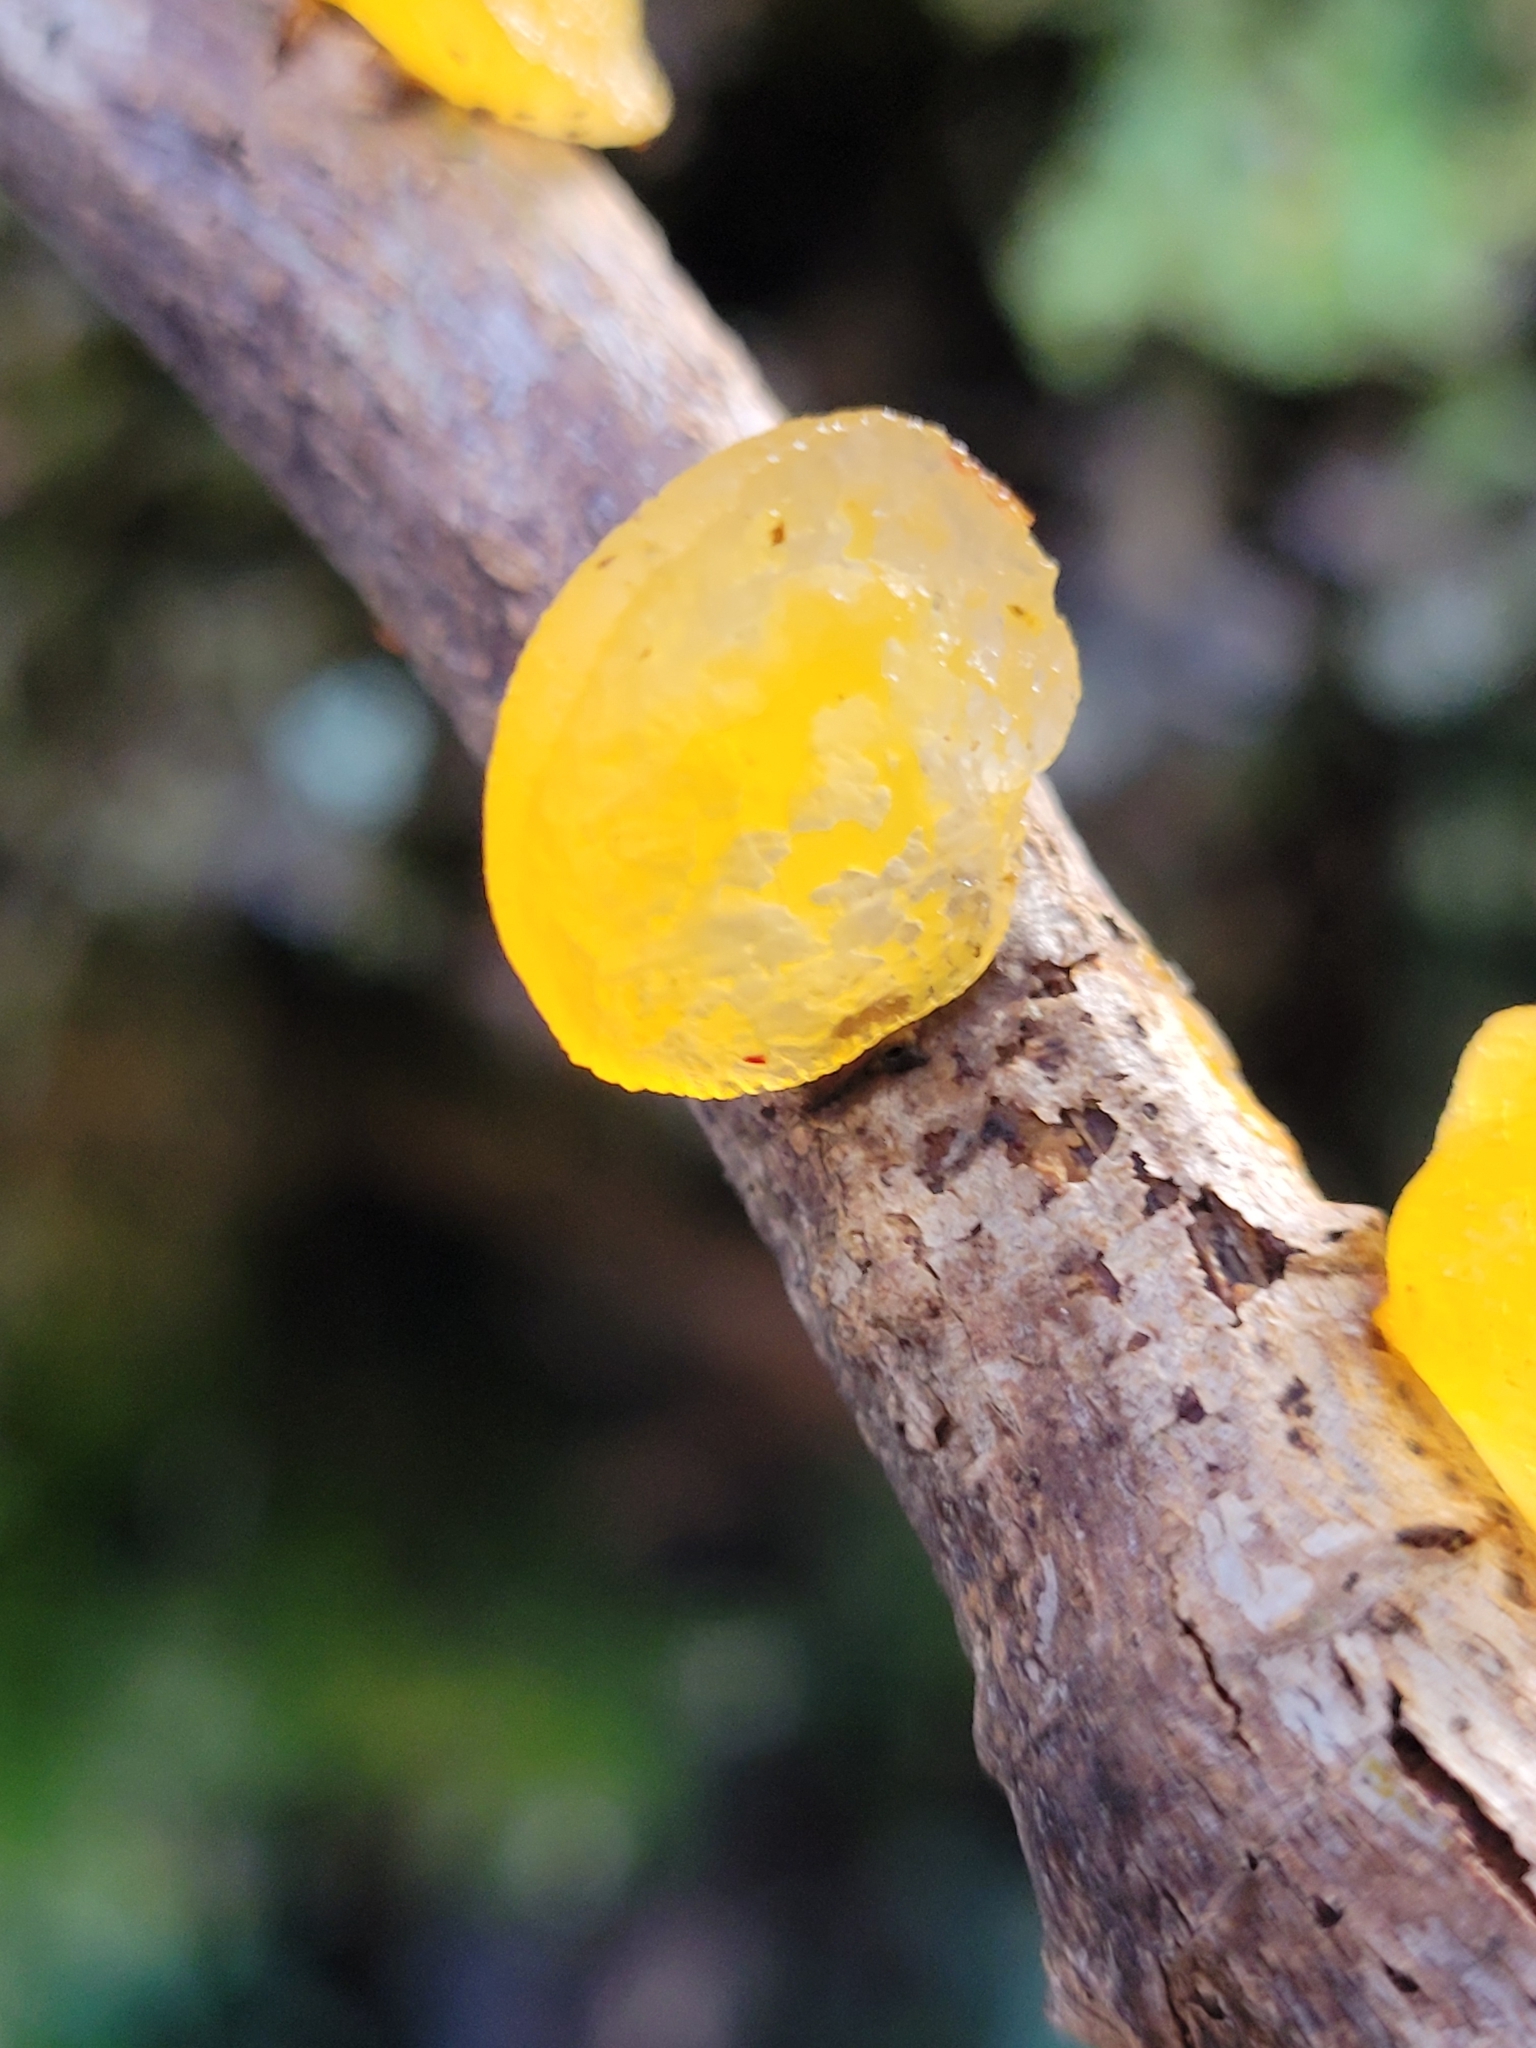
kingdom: Fungi
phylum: Basidiomycota
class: Dacrymycetes
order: Dacrymycetales
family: Dacrymycetaceae
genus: Heterotextus
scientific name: Heterotextus miltinus
